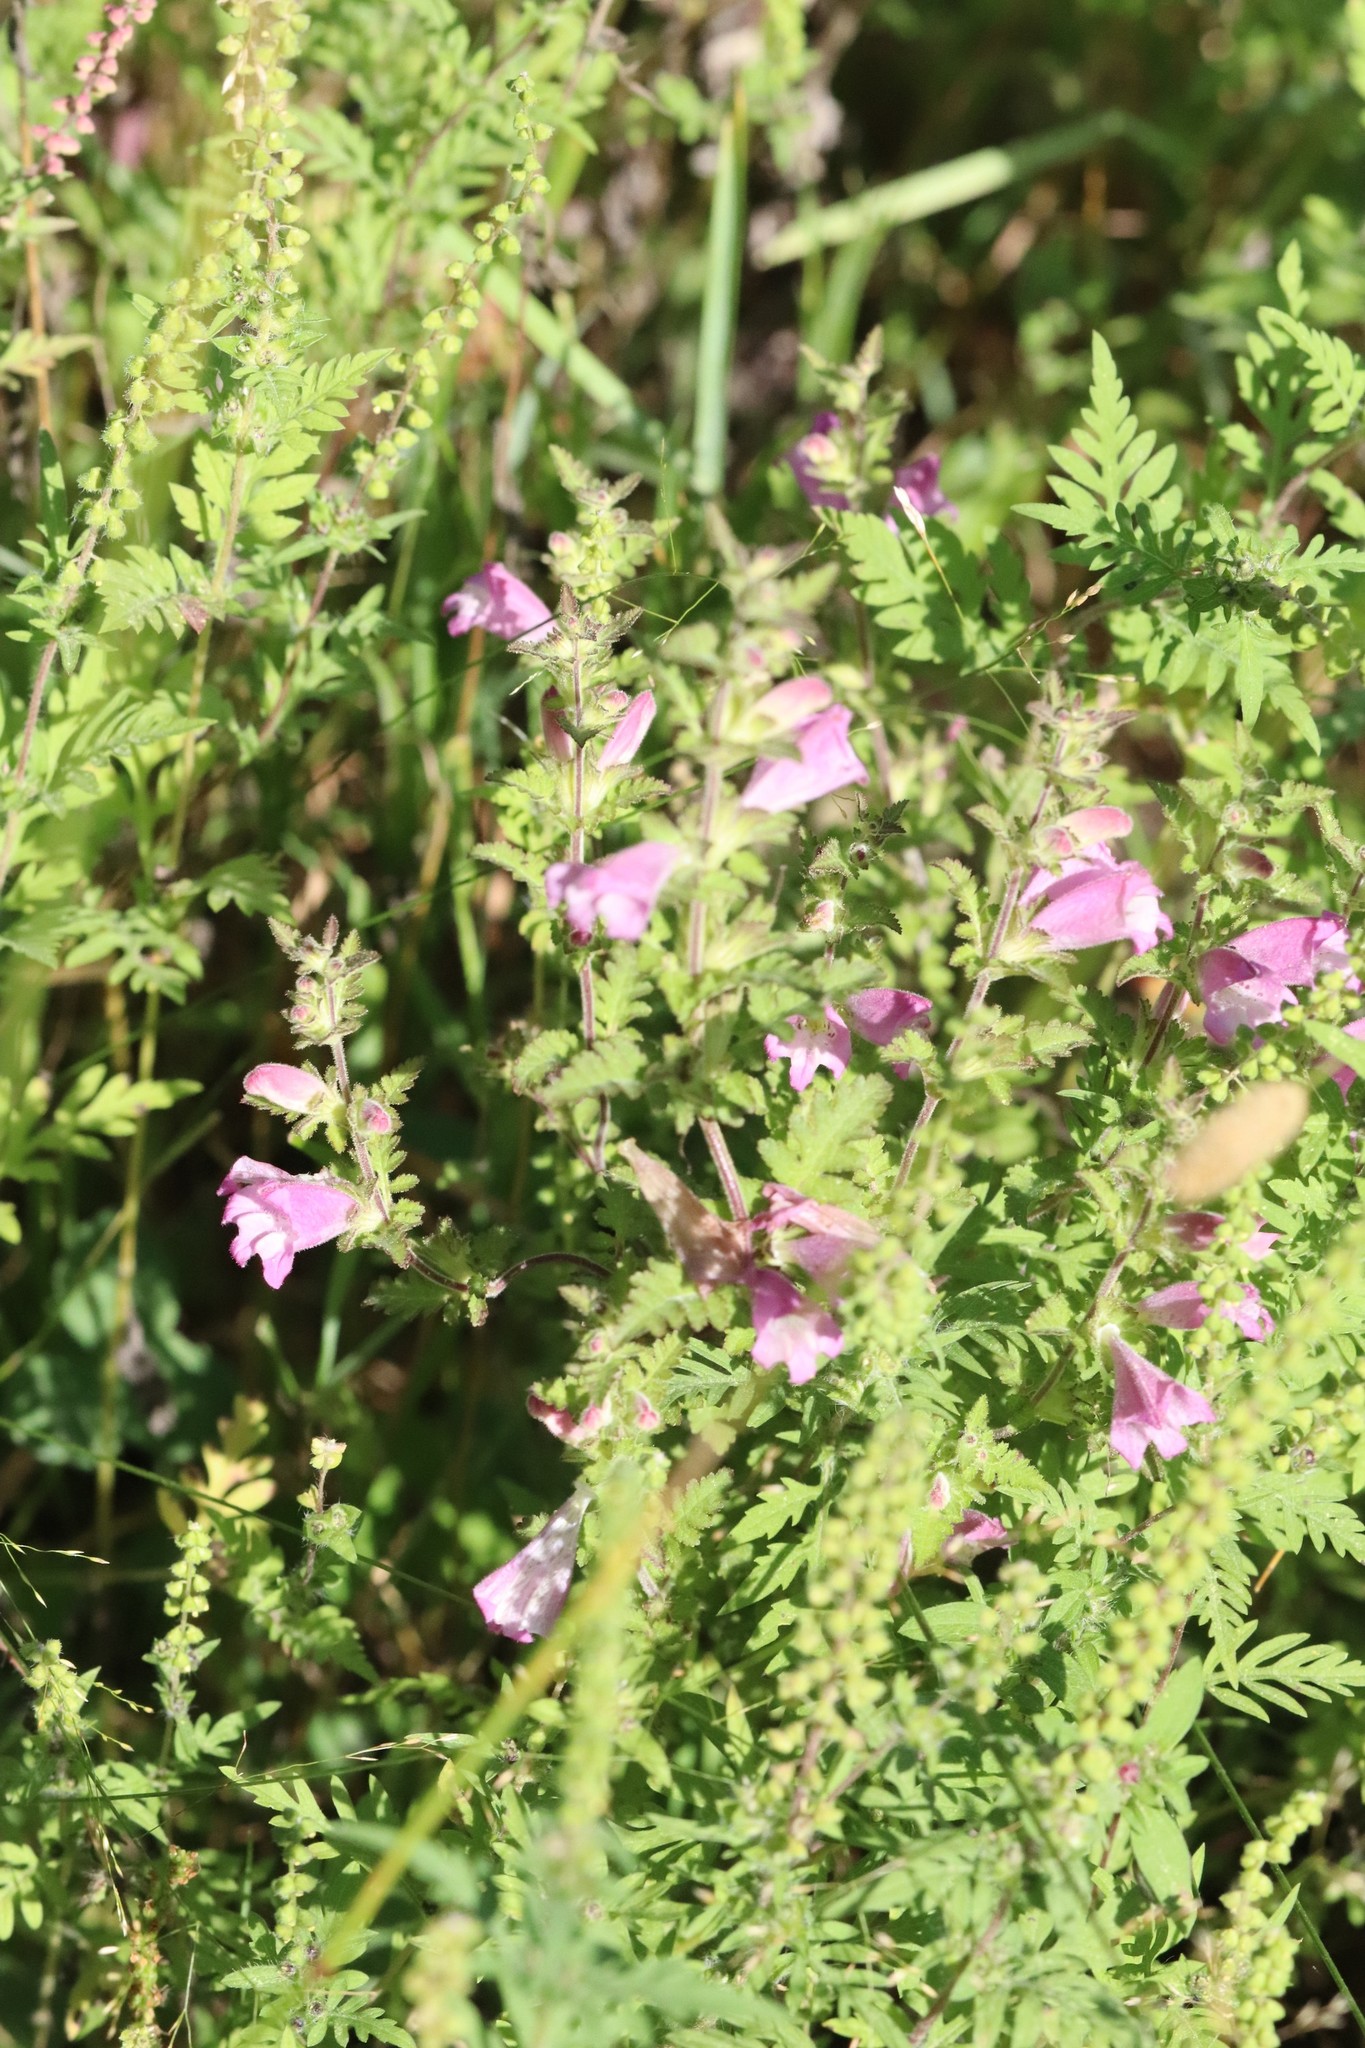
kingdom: Plantae
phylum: Tracheophyta
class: Magnoliopsida
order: Lamiales
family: Orobanchaceae
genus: Phtheirospermum
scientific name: Phtheirospermum japonicum
